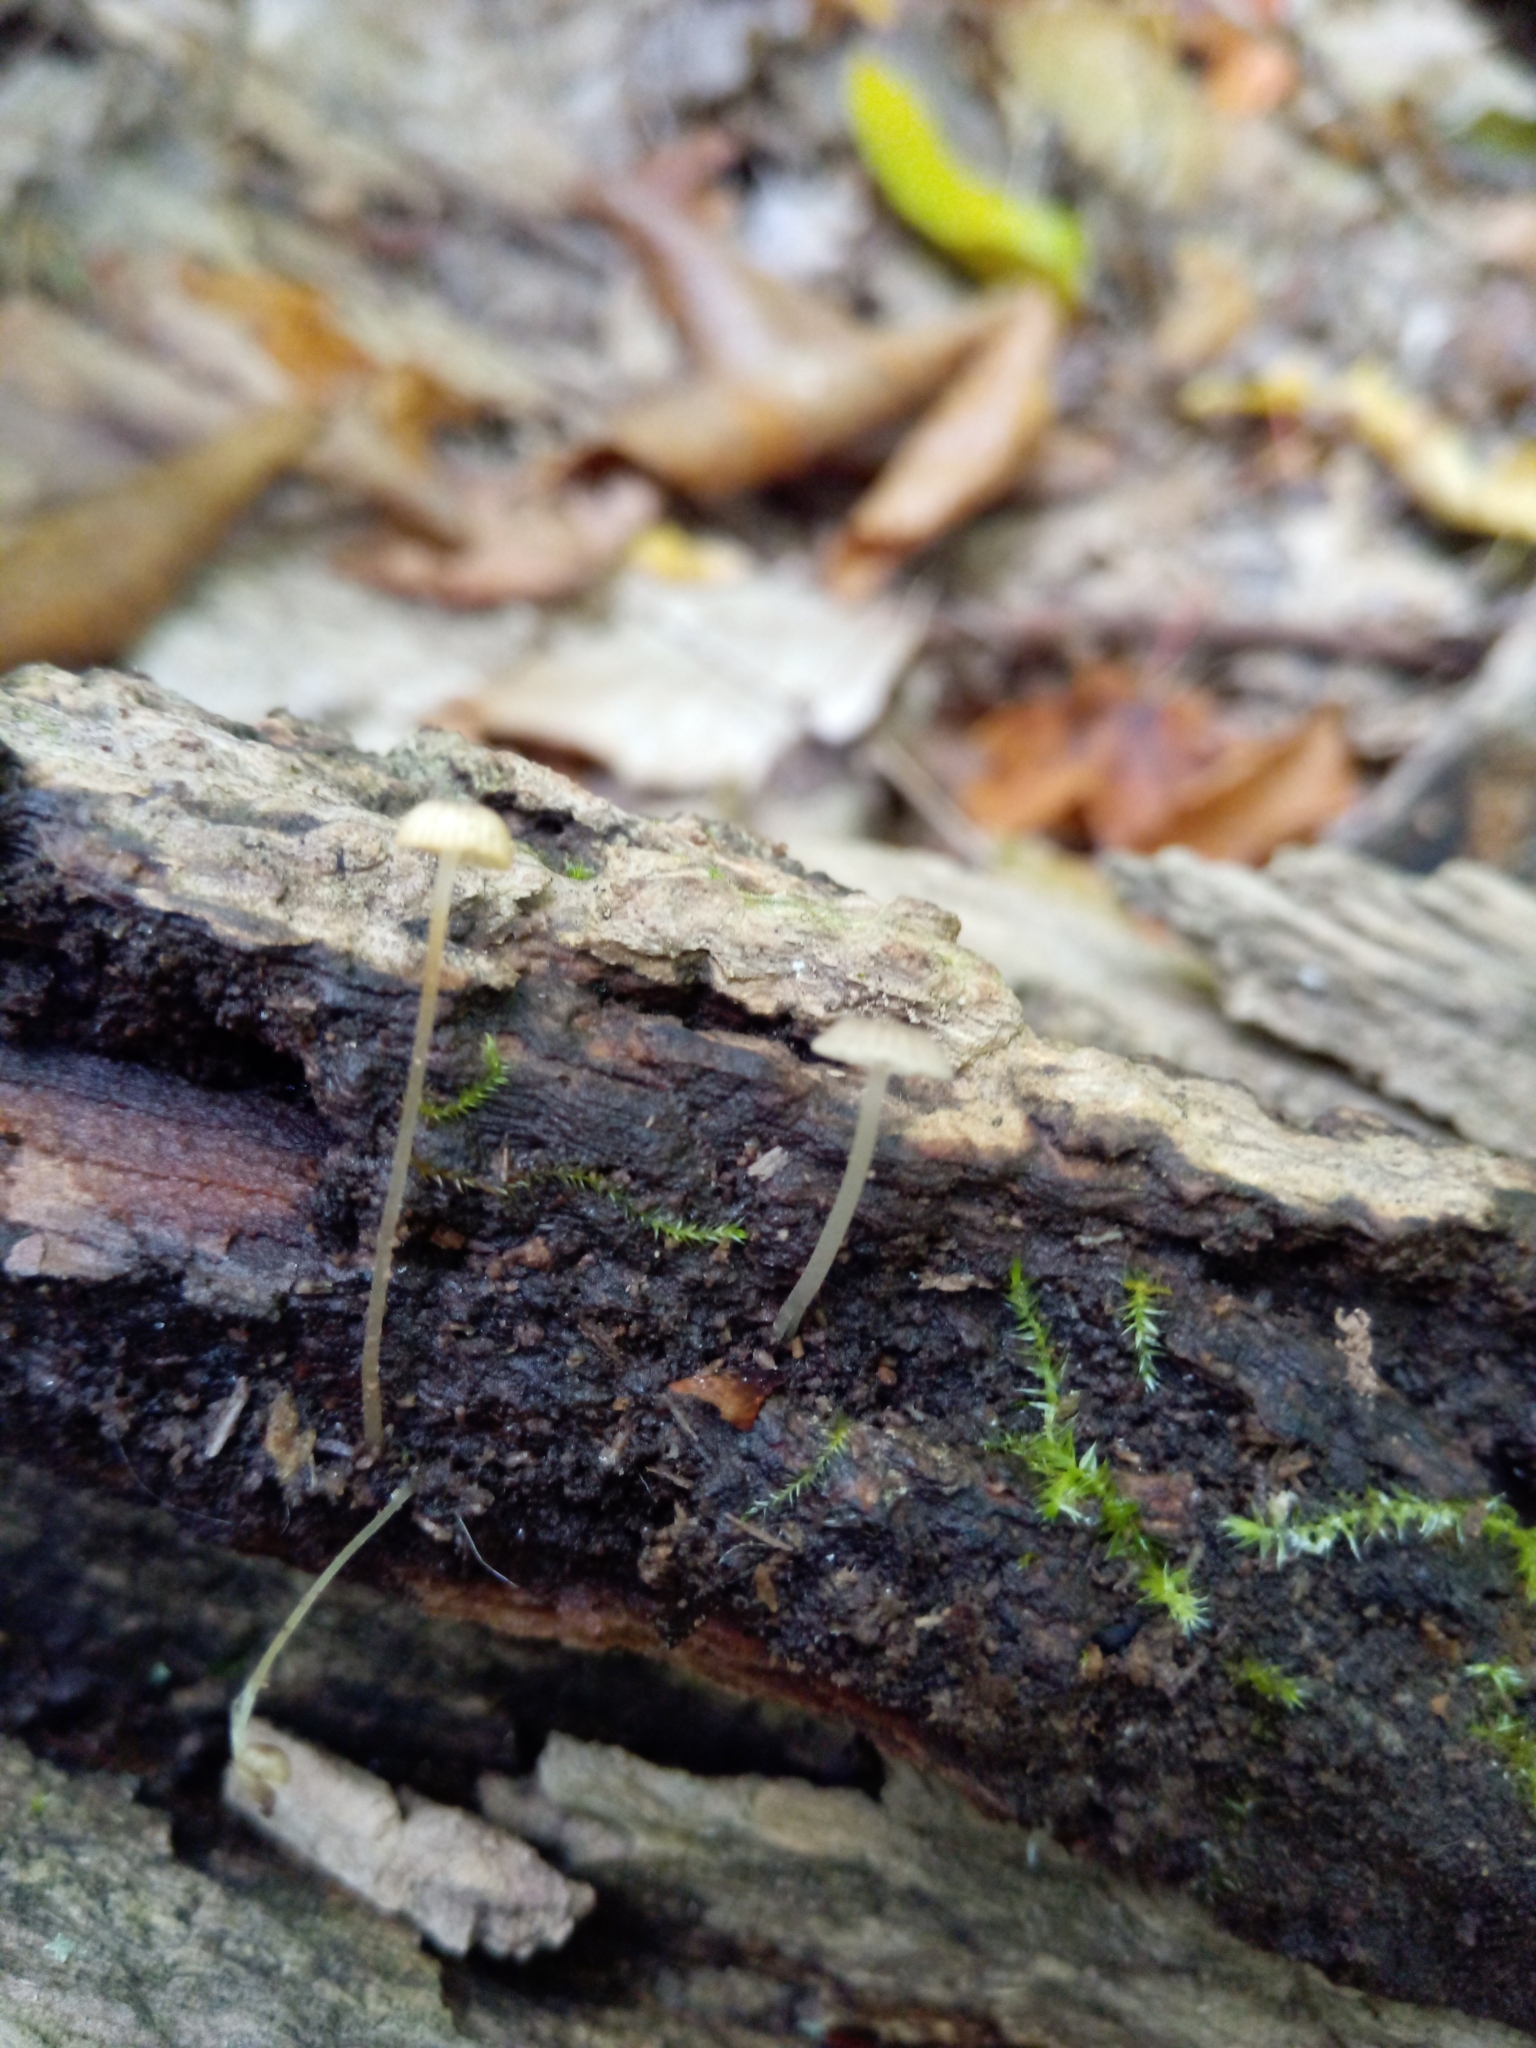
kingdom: Fungi
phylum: Basidiomycota
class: Agaricomycetes
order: Agaricales
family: Porotheleaceae
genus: Phloeomana
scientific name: Phloeomana speirea
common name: Bark bonnet
